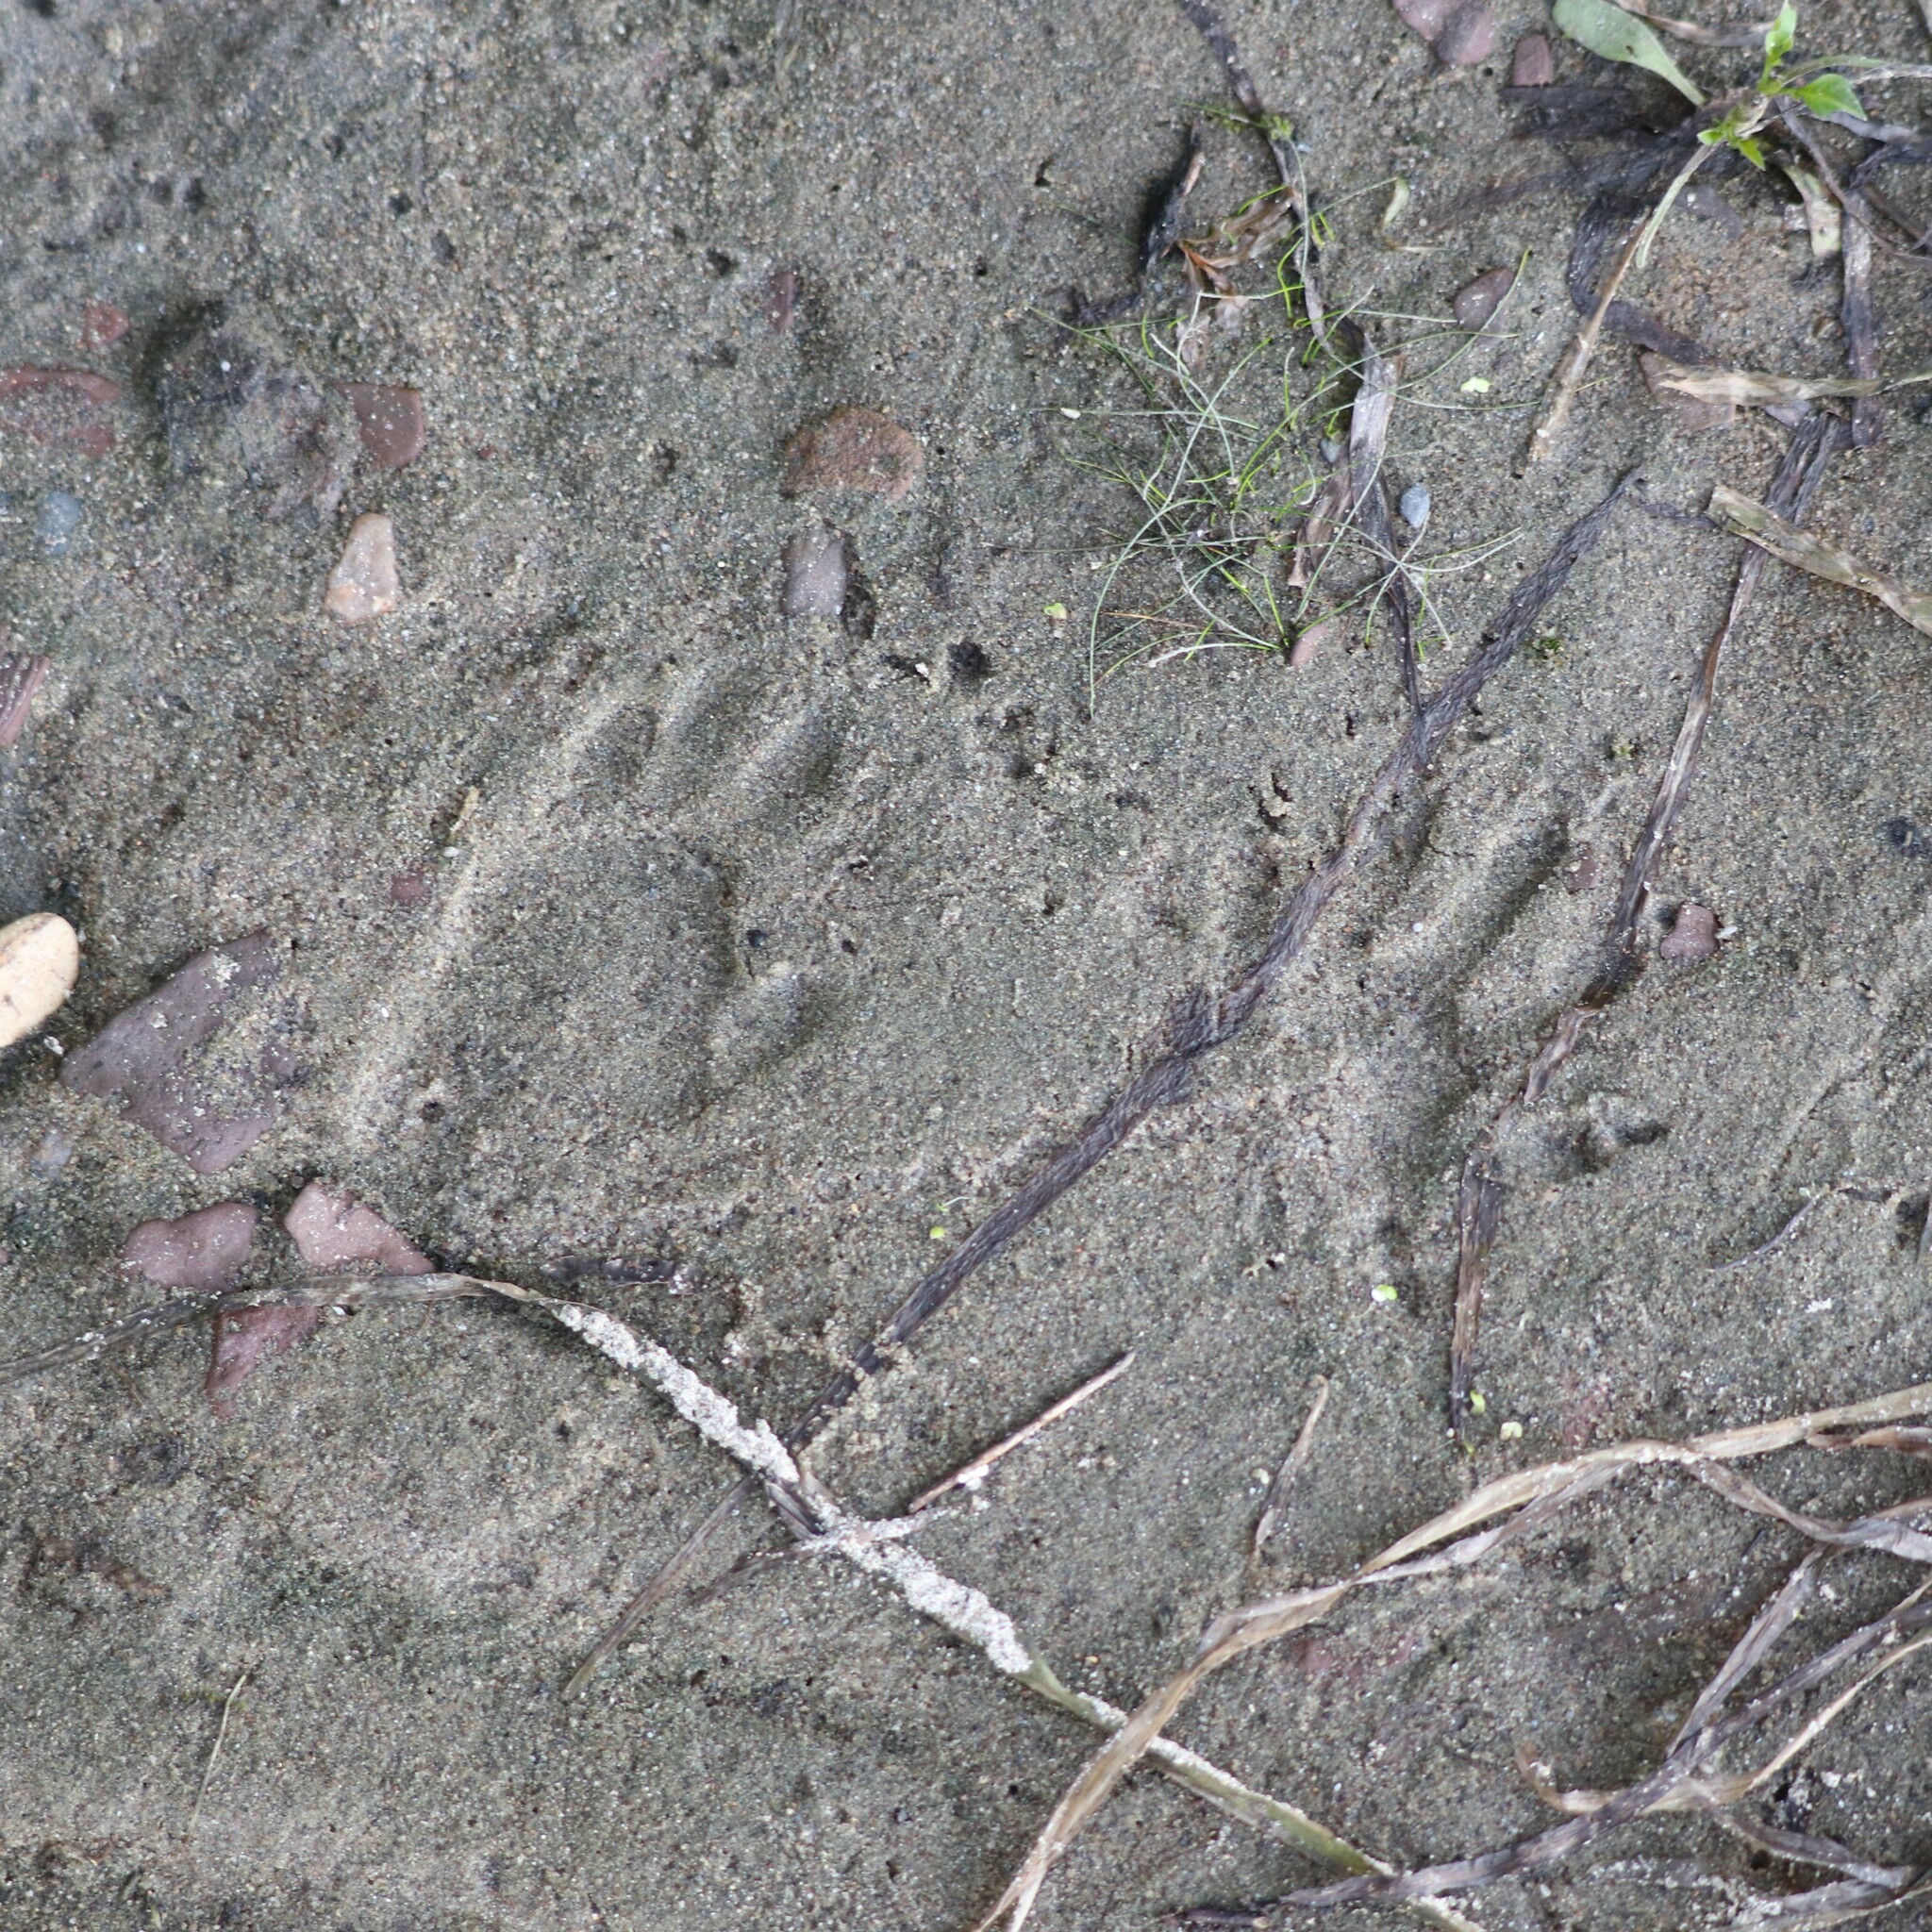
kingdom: Animalia
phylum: Chordata
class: Mammalia
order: Carnivora
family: Procyonidae
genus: Procyon
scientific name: Procyon lotor
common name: Raccoon
